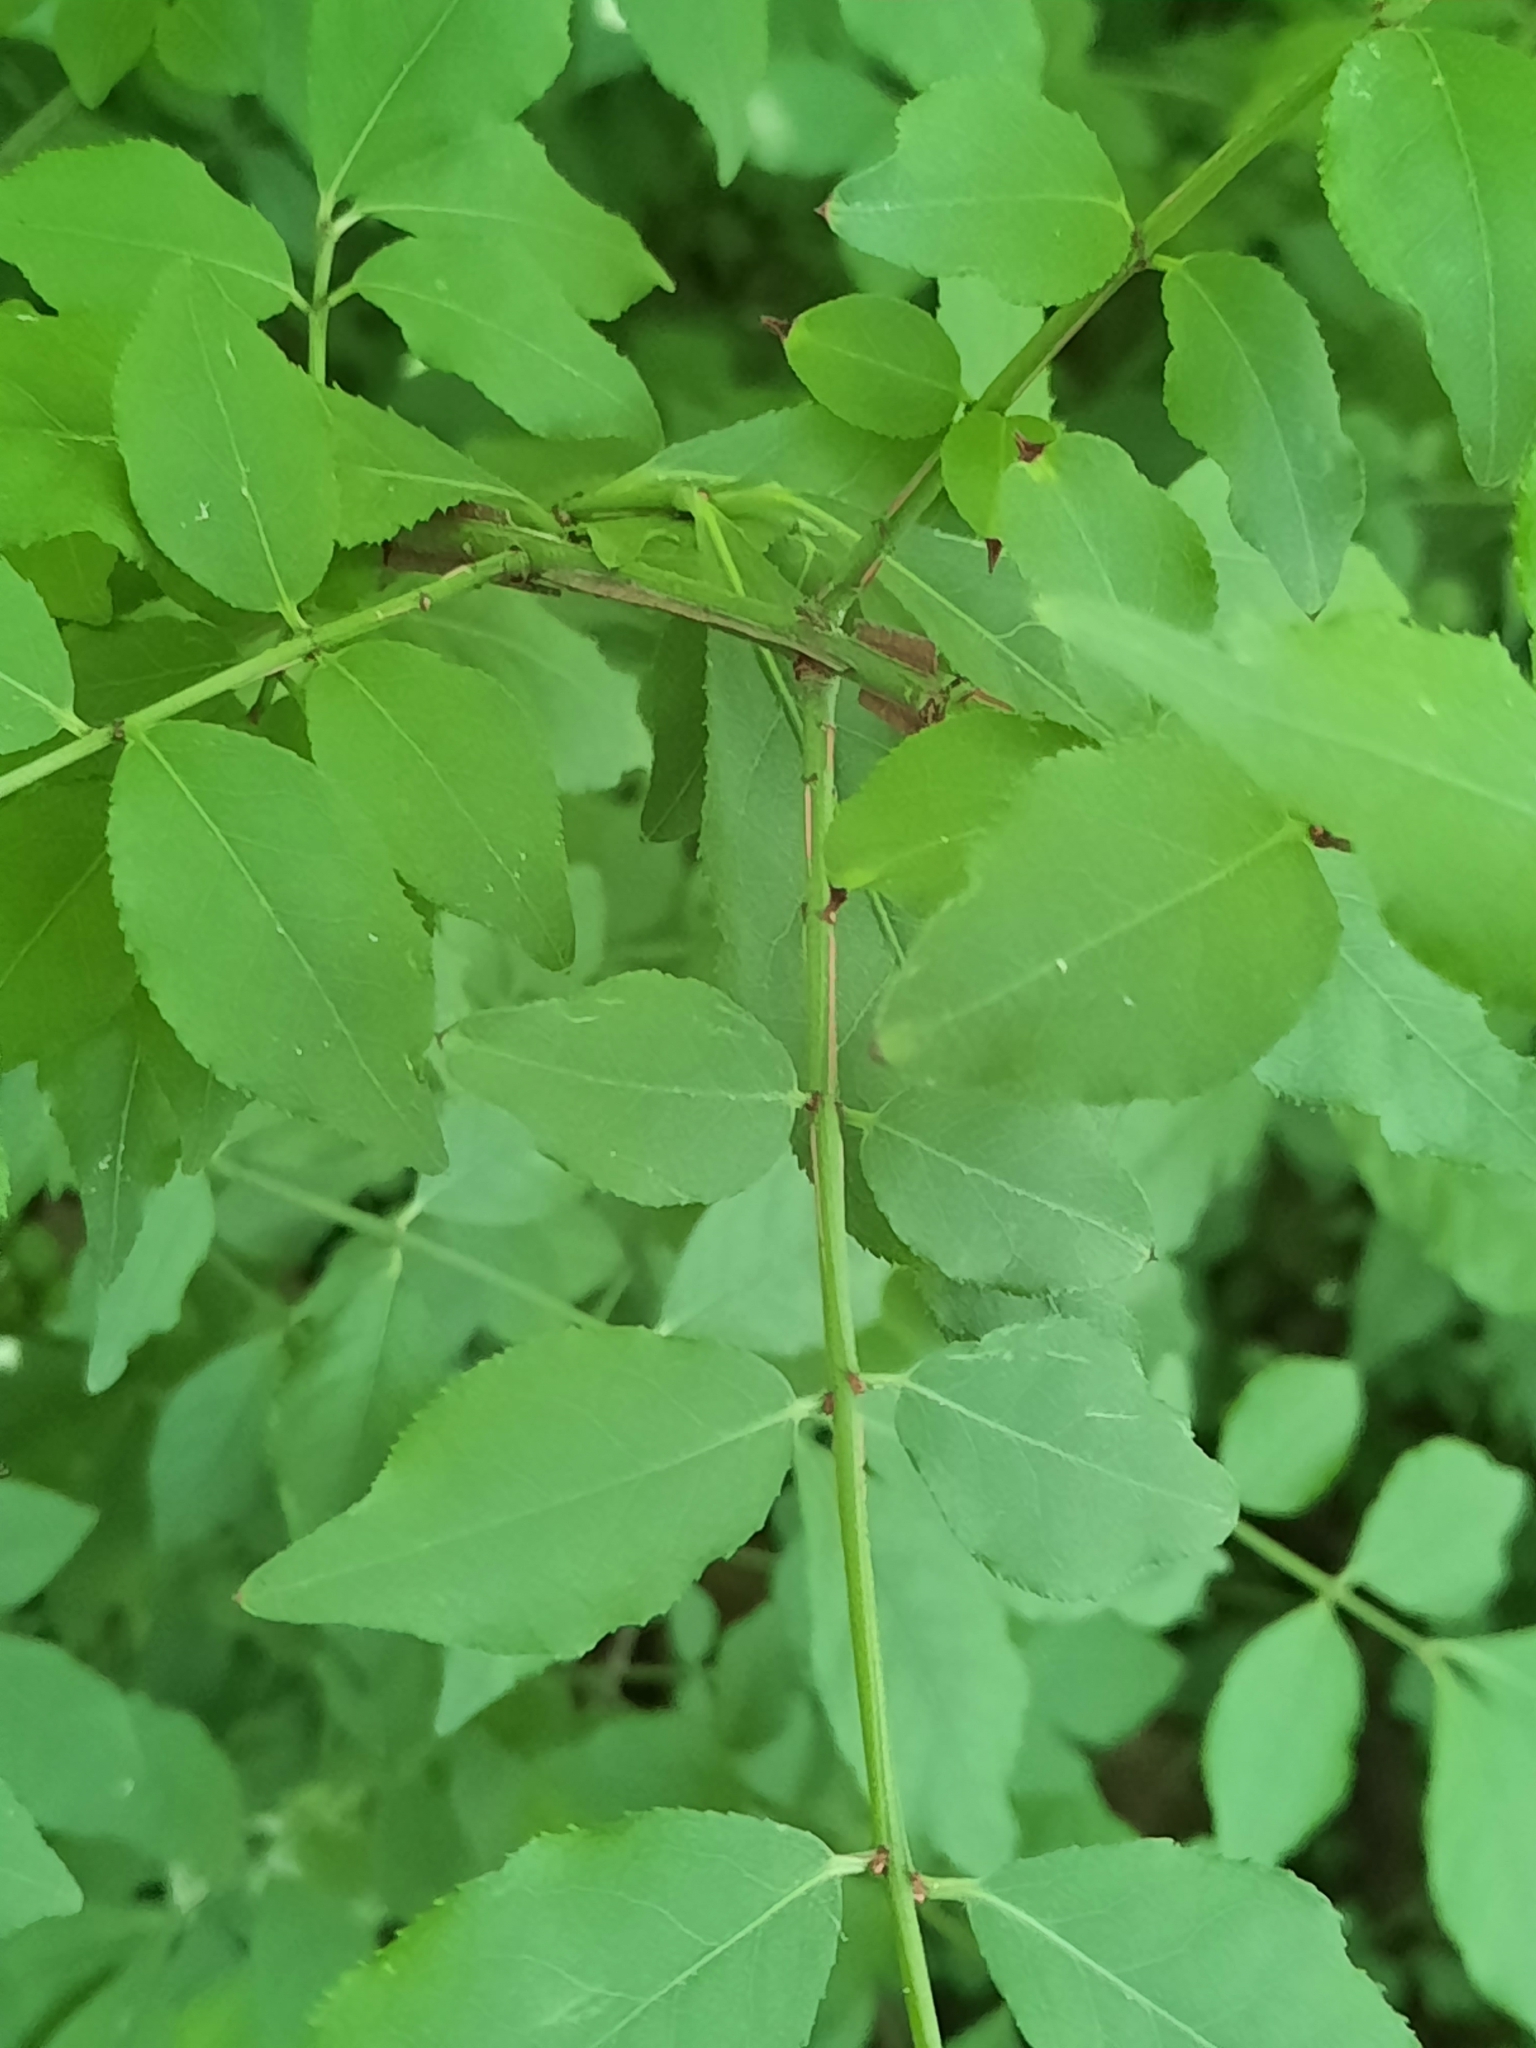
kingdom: Plantae
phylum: Tracheophyta
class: Magnoliopsida
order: Celastrales
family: Celastraceae
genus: Euonymus
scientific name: Euonymus alatus
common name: Winged euonymus
